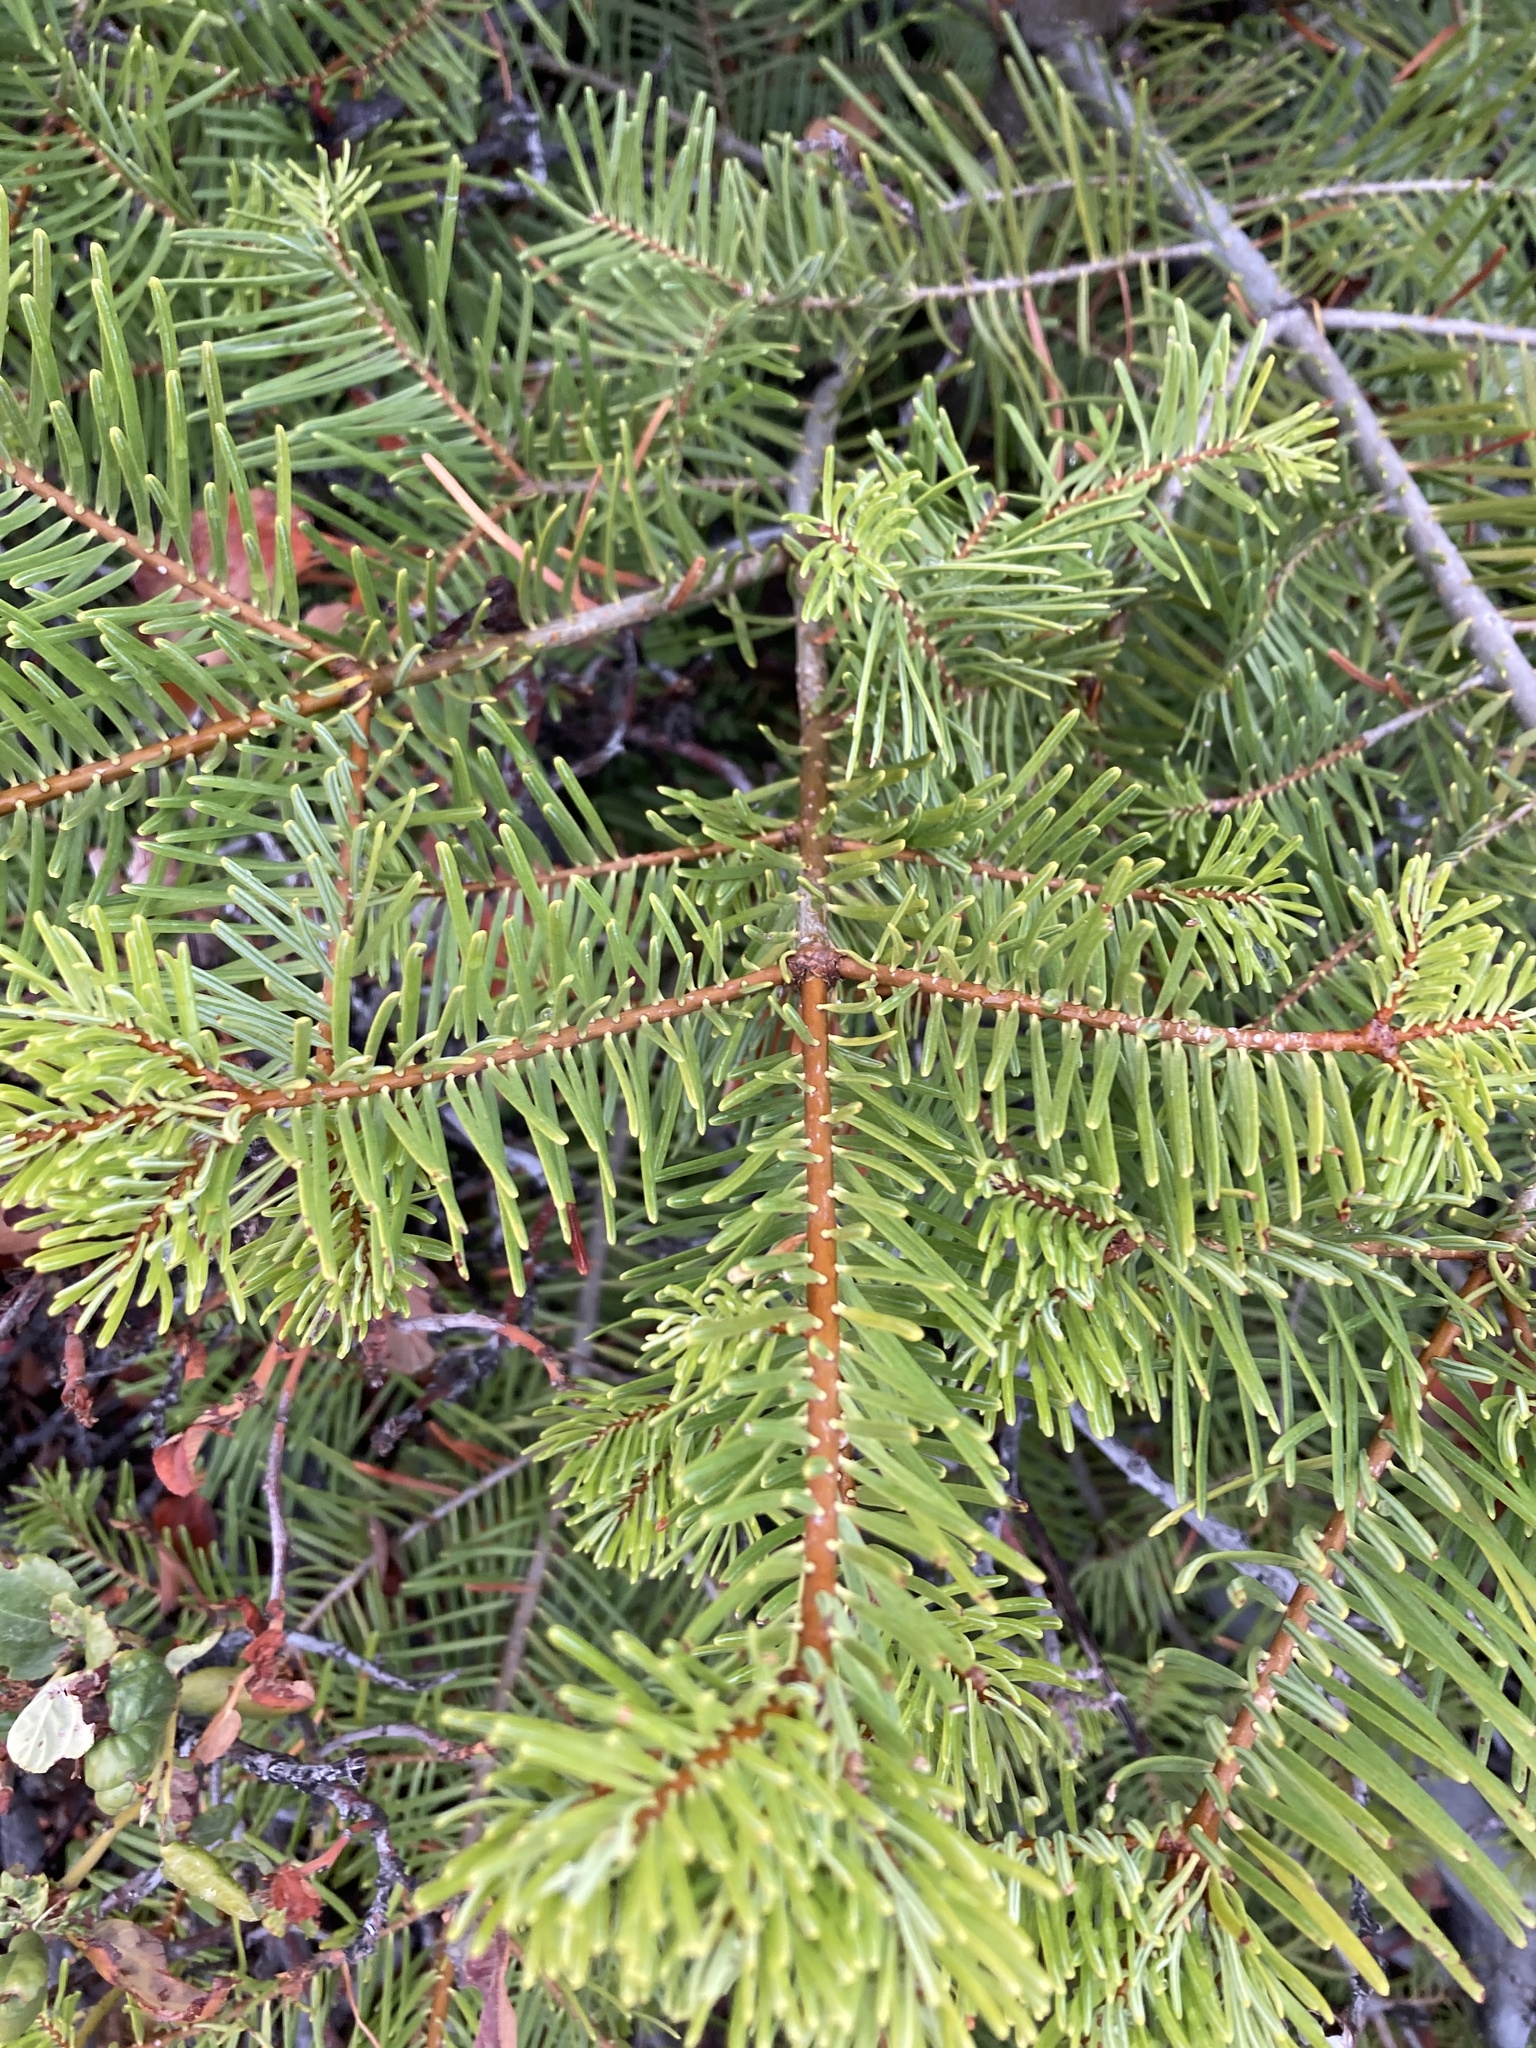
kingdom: Plantae
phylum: Tracheophyta
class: Pinopsida
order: Pinales
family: Pinaceae
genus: Abies
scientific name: Abies concolor
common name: Colorado fir
